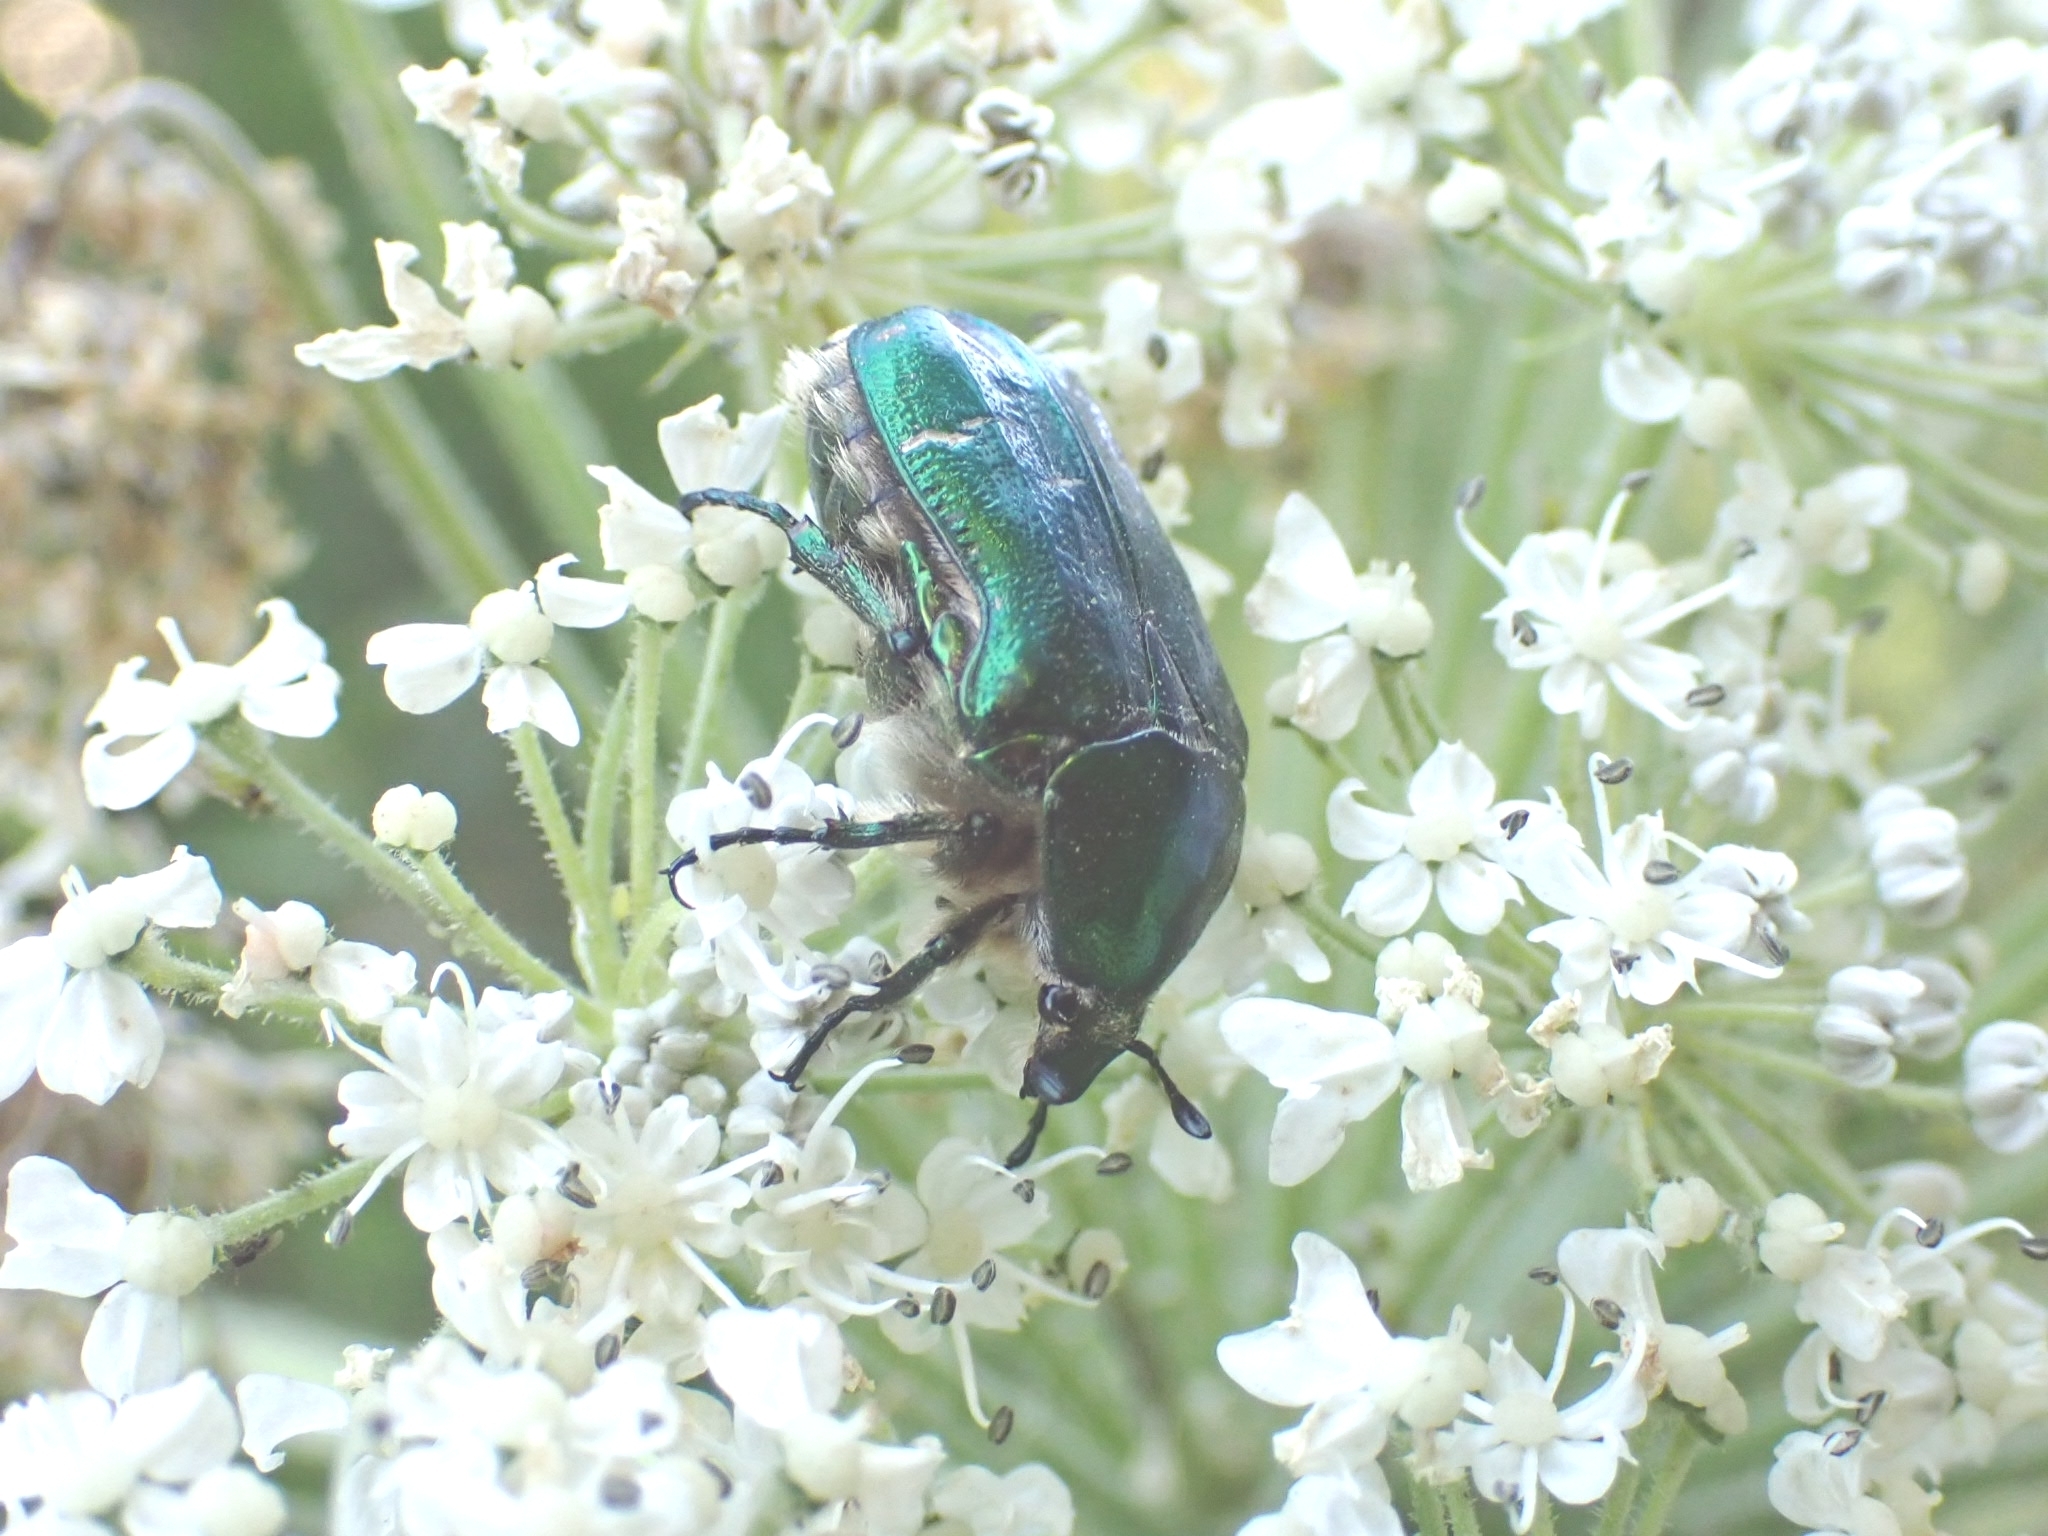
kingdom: Animalia
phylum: Arthropoda
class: Insecta
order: Coleoptera
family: Scarabaeidae
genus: Cetonia
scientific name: Cetonia aurata
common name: Rose chafer
